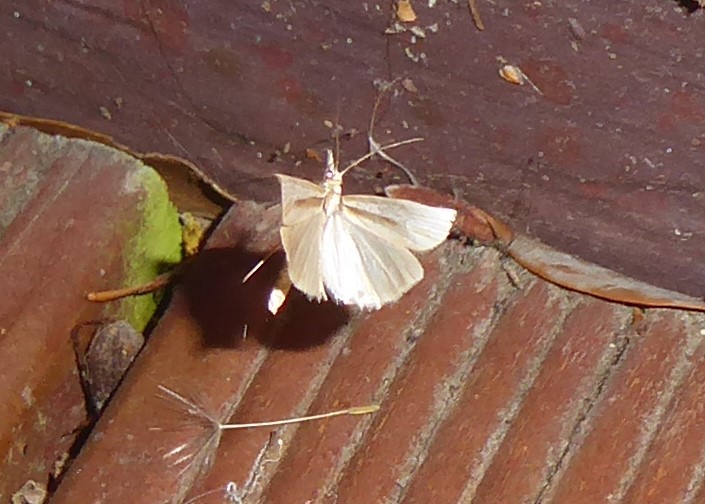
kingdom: Animalia
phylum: Arthropoda
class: Insecta
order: Lepidoptera
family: Crambidae
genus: Orocrambus
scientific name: Orocrambus ramosellus
